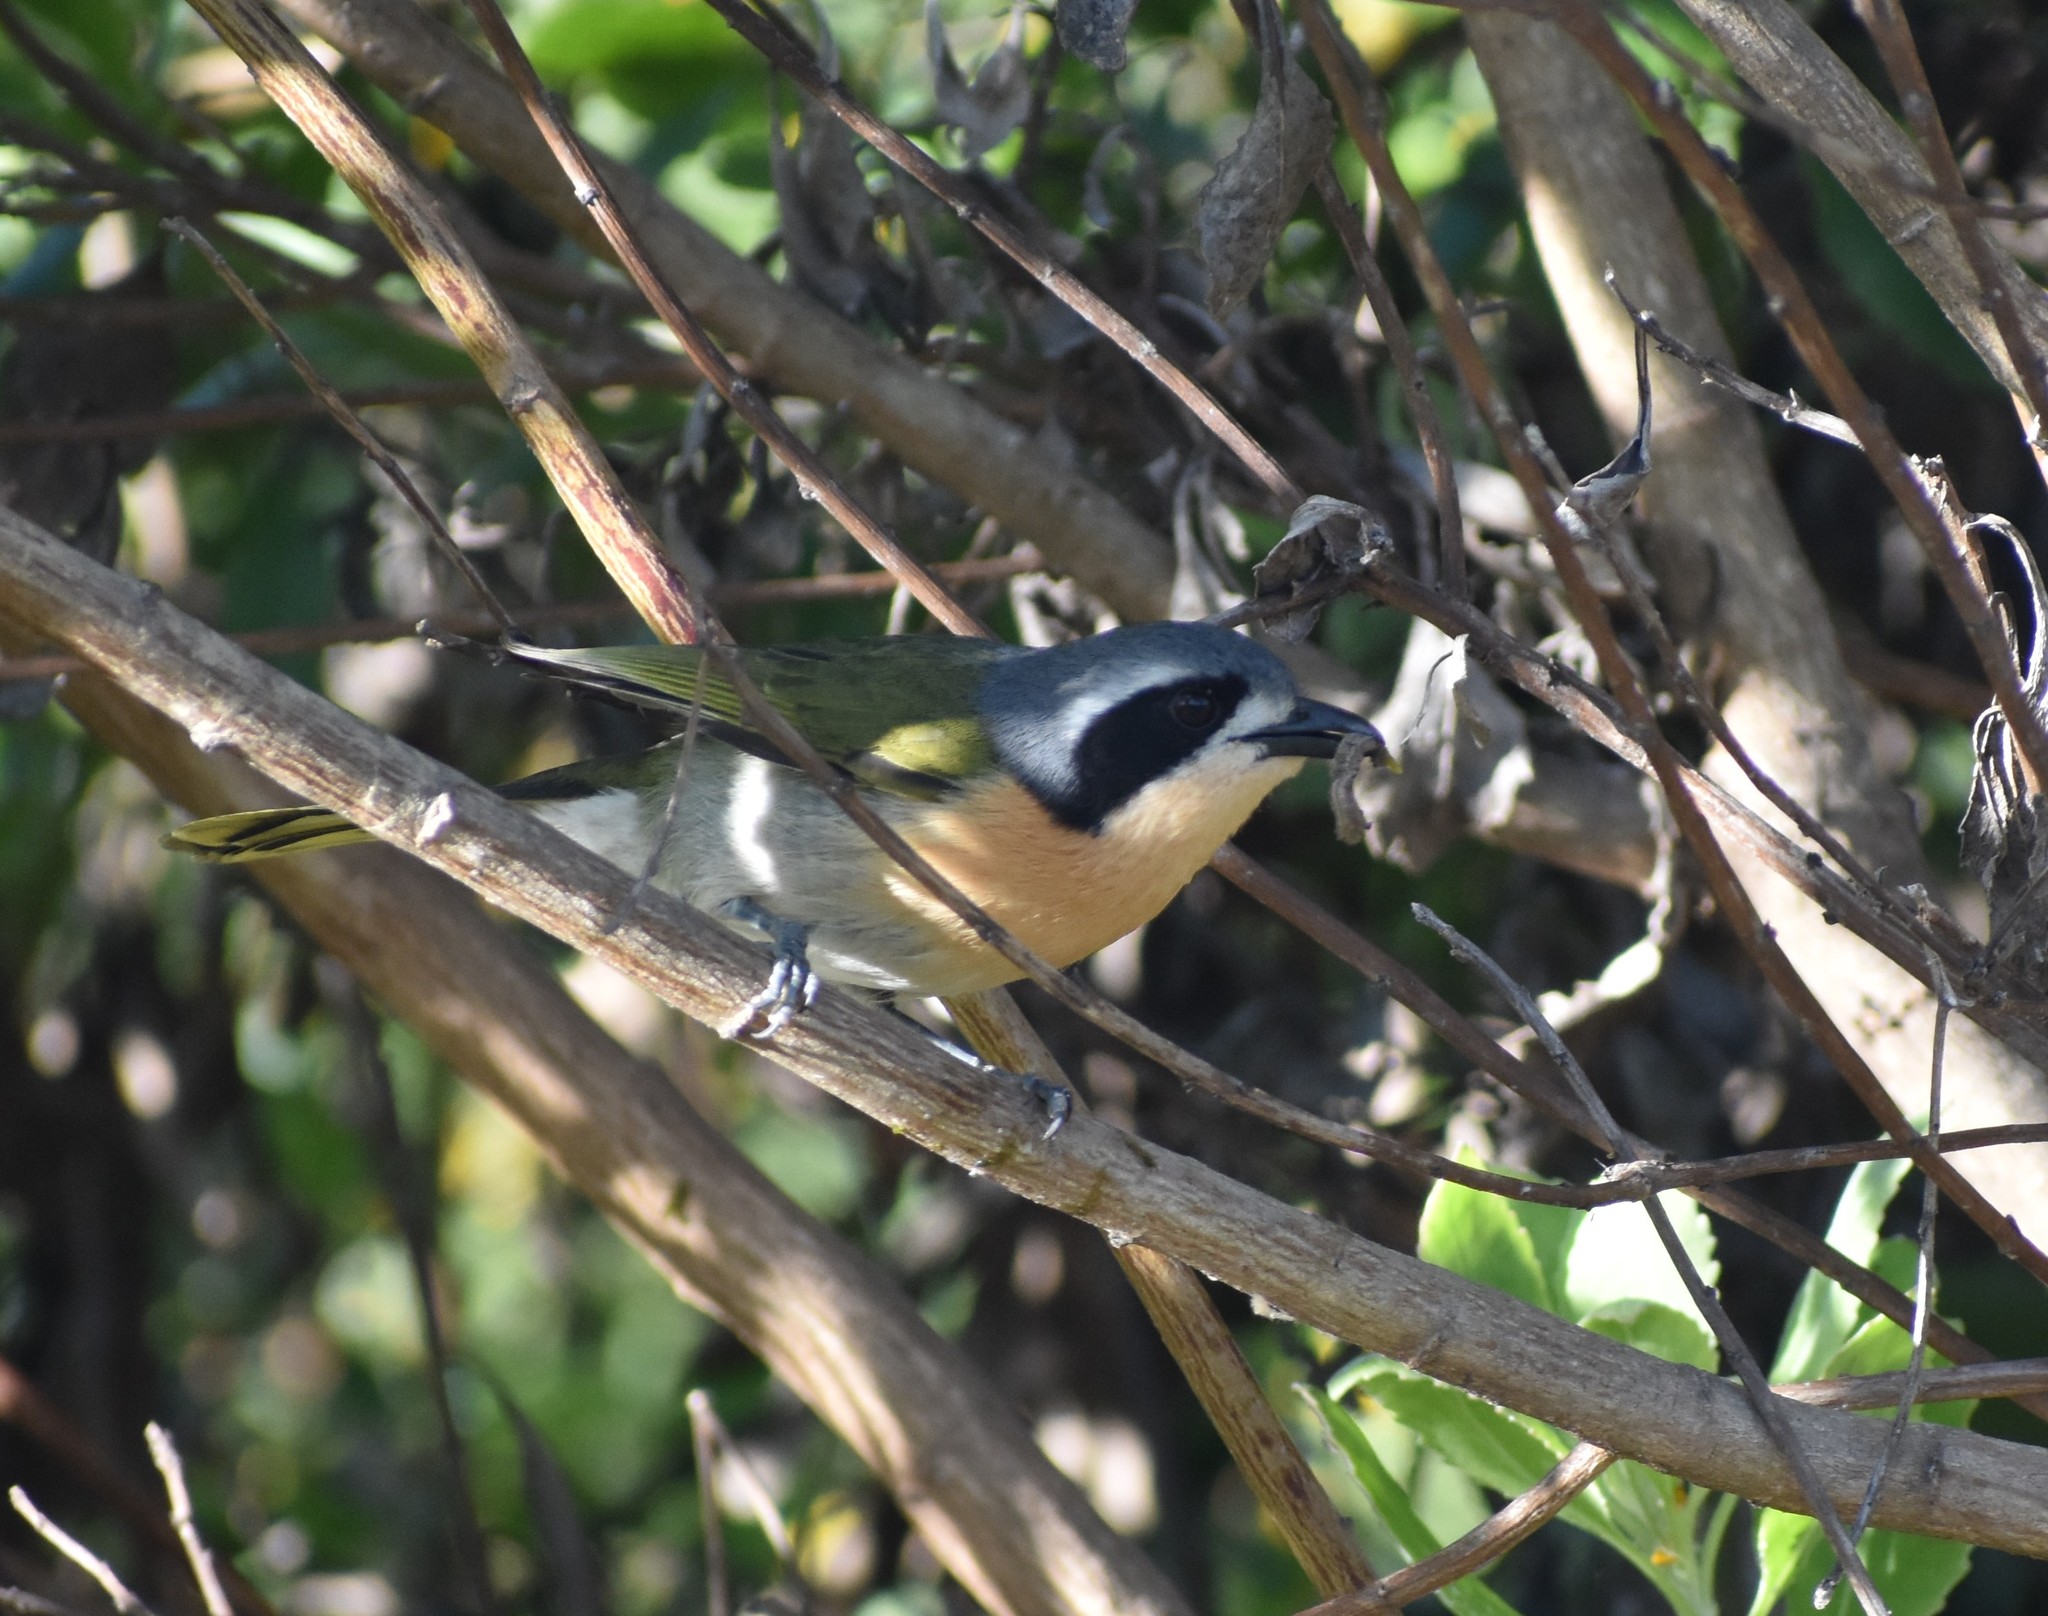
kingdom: Animalia
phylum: Chordata
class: Aves
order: Passeriformes
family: Malaconotidae
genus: Chlorophoneus
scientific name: Chlorophoneus olivaceus
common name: Olive bushshrike
